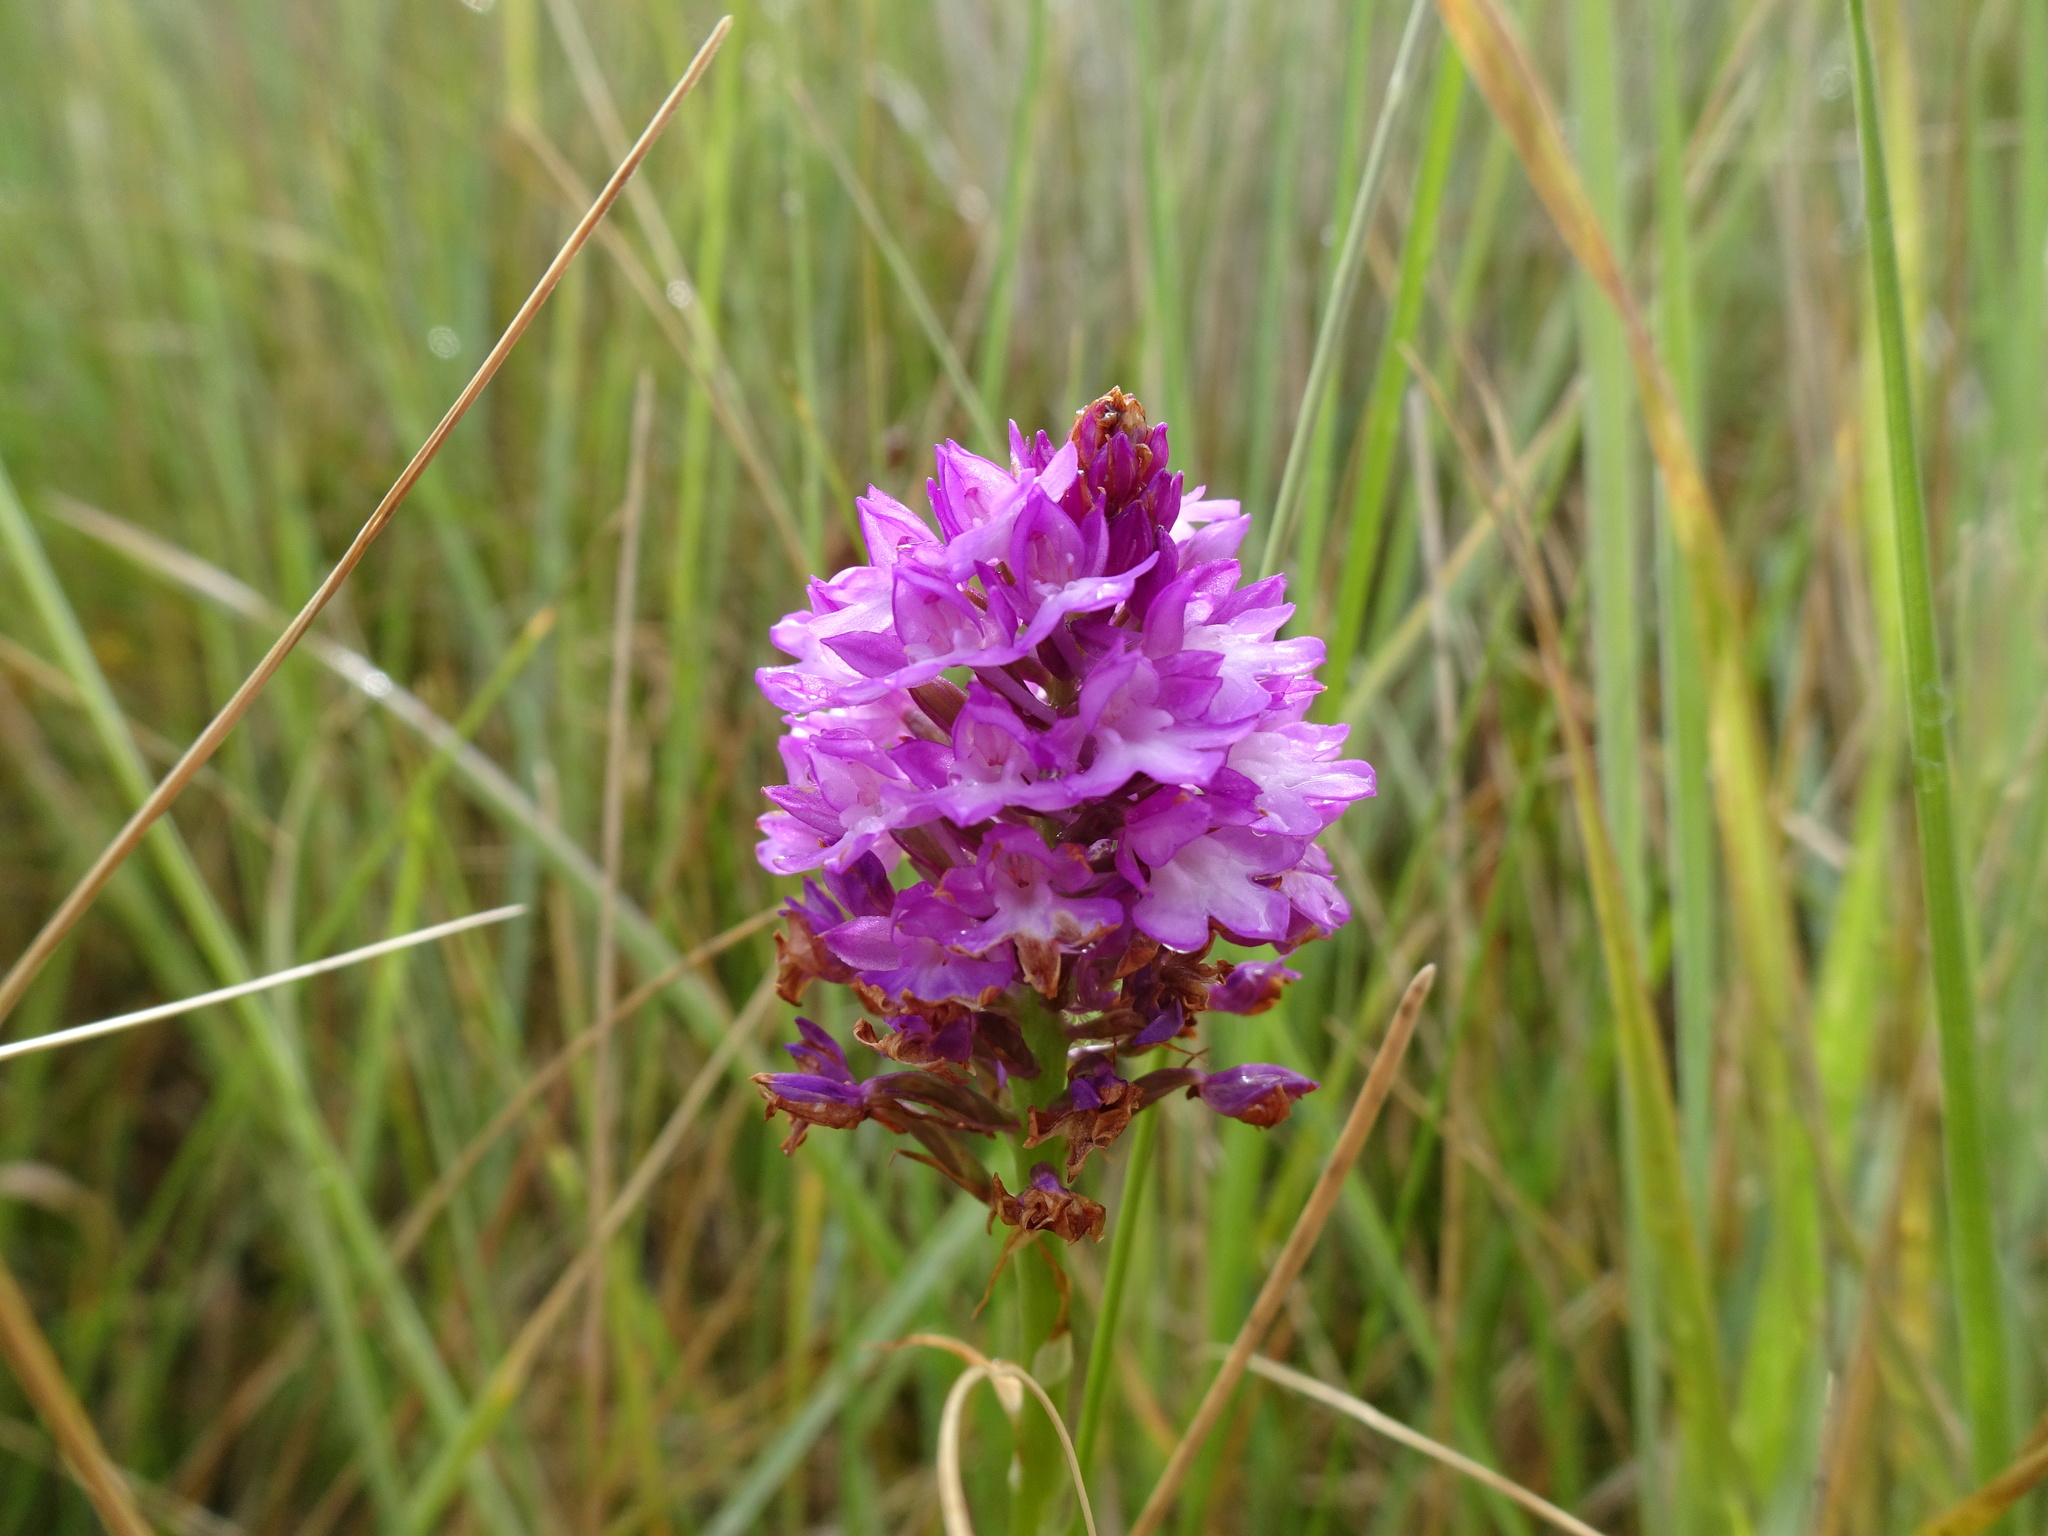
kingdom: Plantae
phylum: Tracheophyta
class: Liliopsida
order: Asparagales
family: Orchidaceae
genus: Anacamptis
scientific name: Anacamptis pyramidalis
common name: Pyramidal orchid
